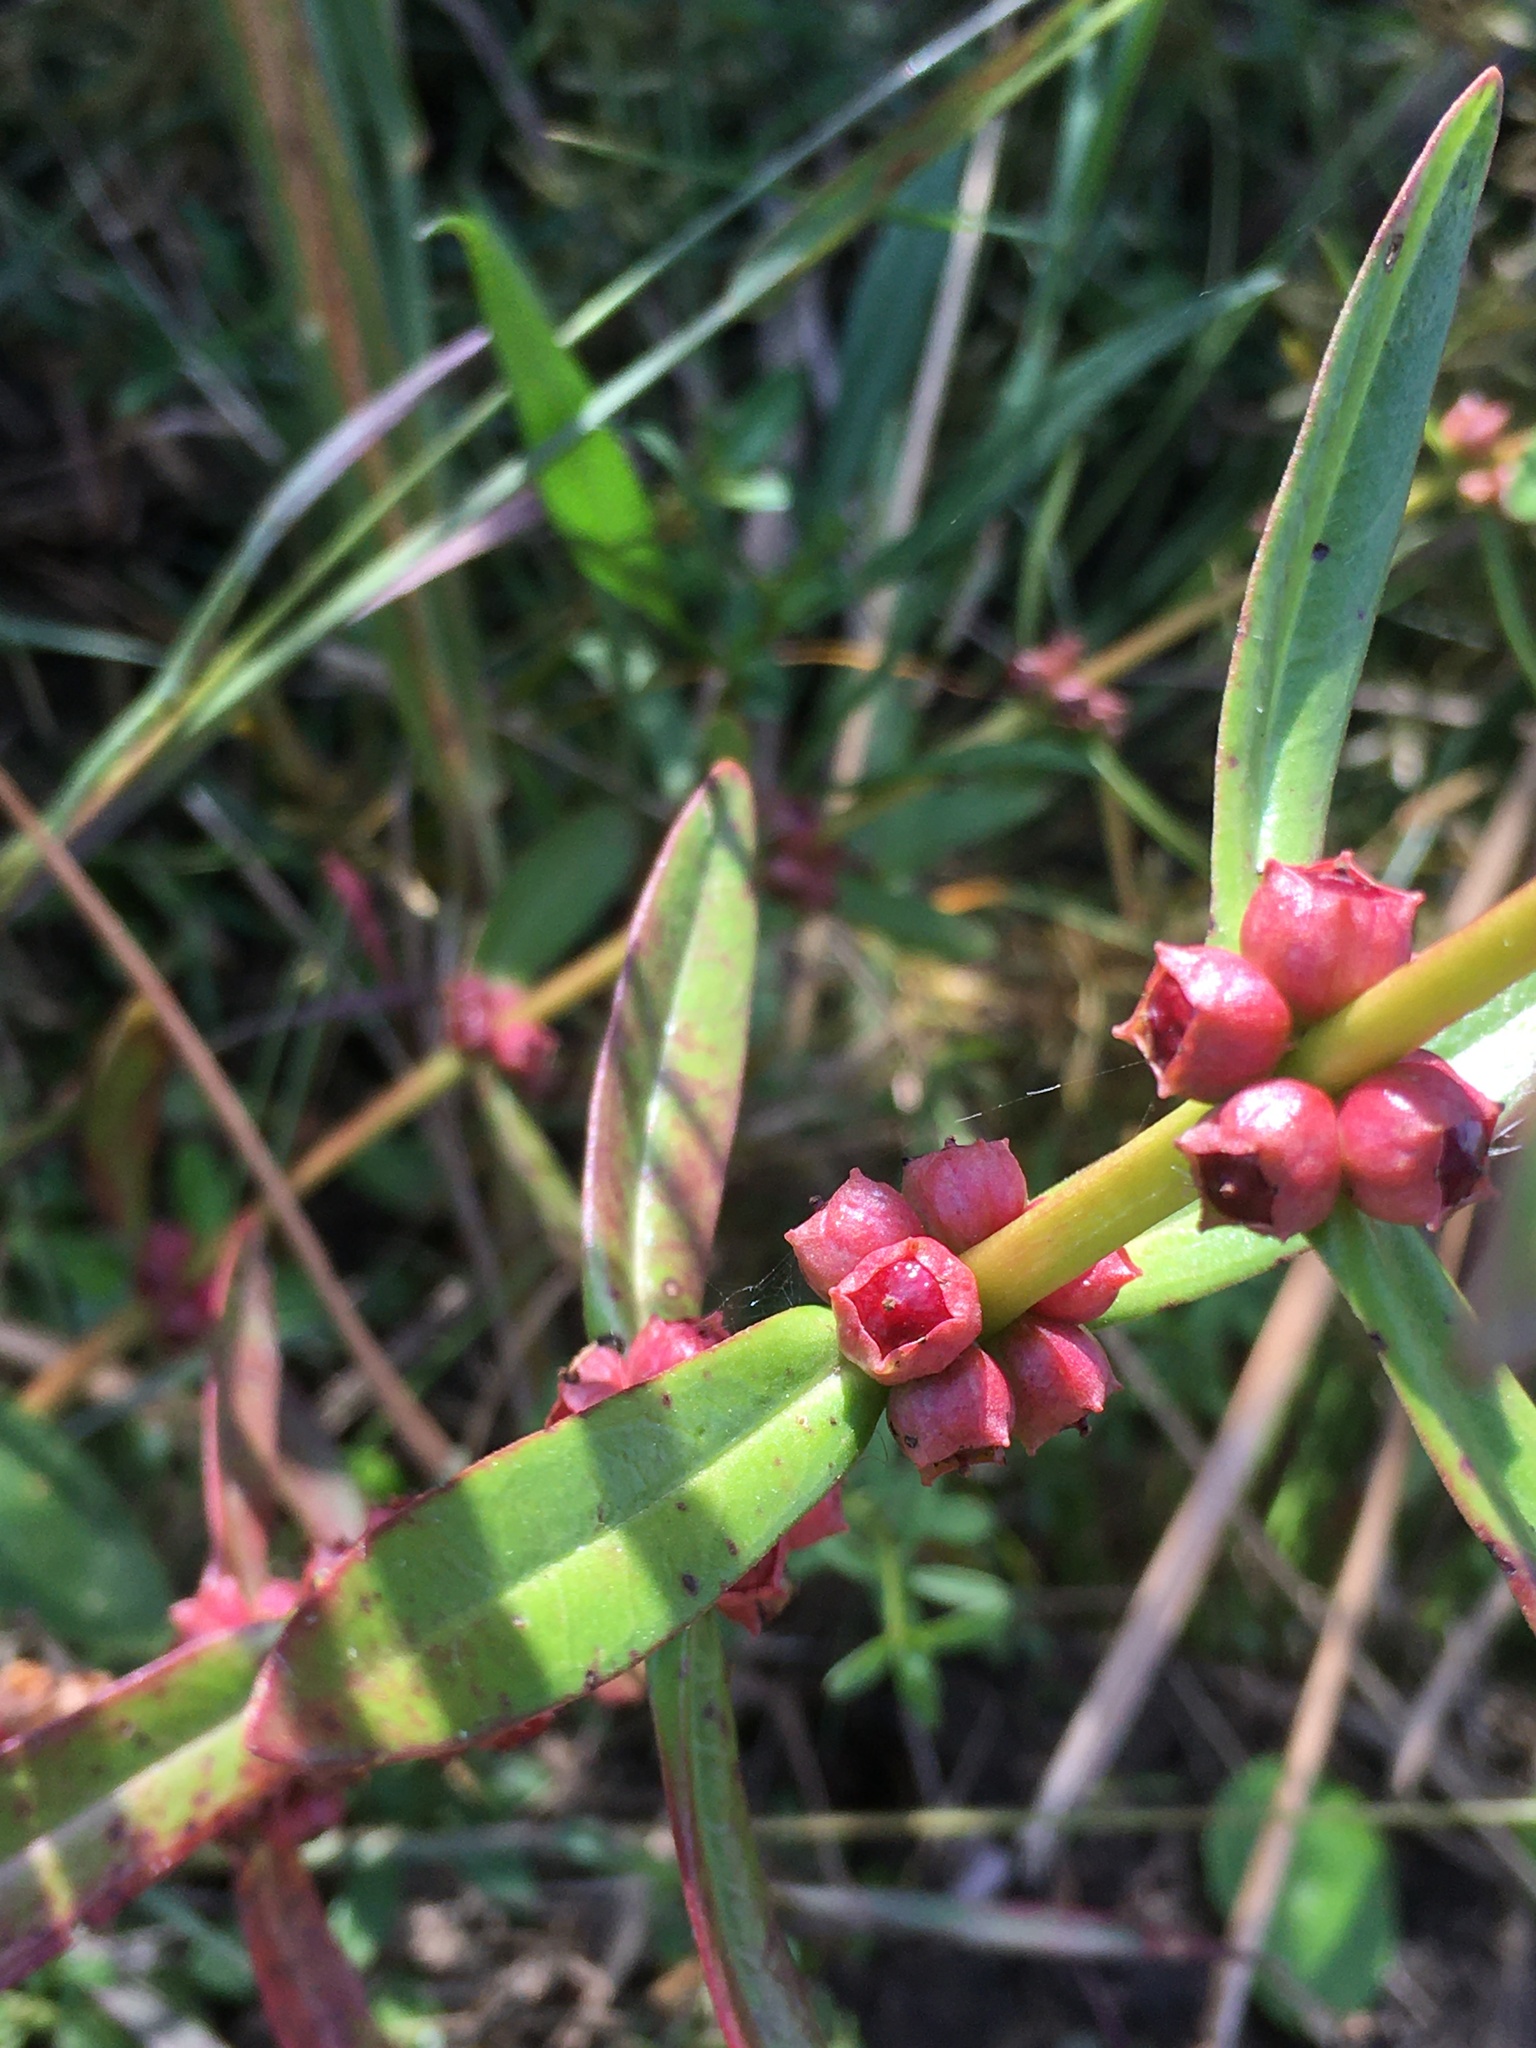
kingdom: Plantae
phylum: Tracheophyta
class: Magnoliopsida
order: Myrtales
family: Lythraceae
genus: Ammannia
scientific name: Ammannia latifolia
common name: Toothcup
